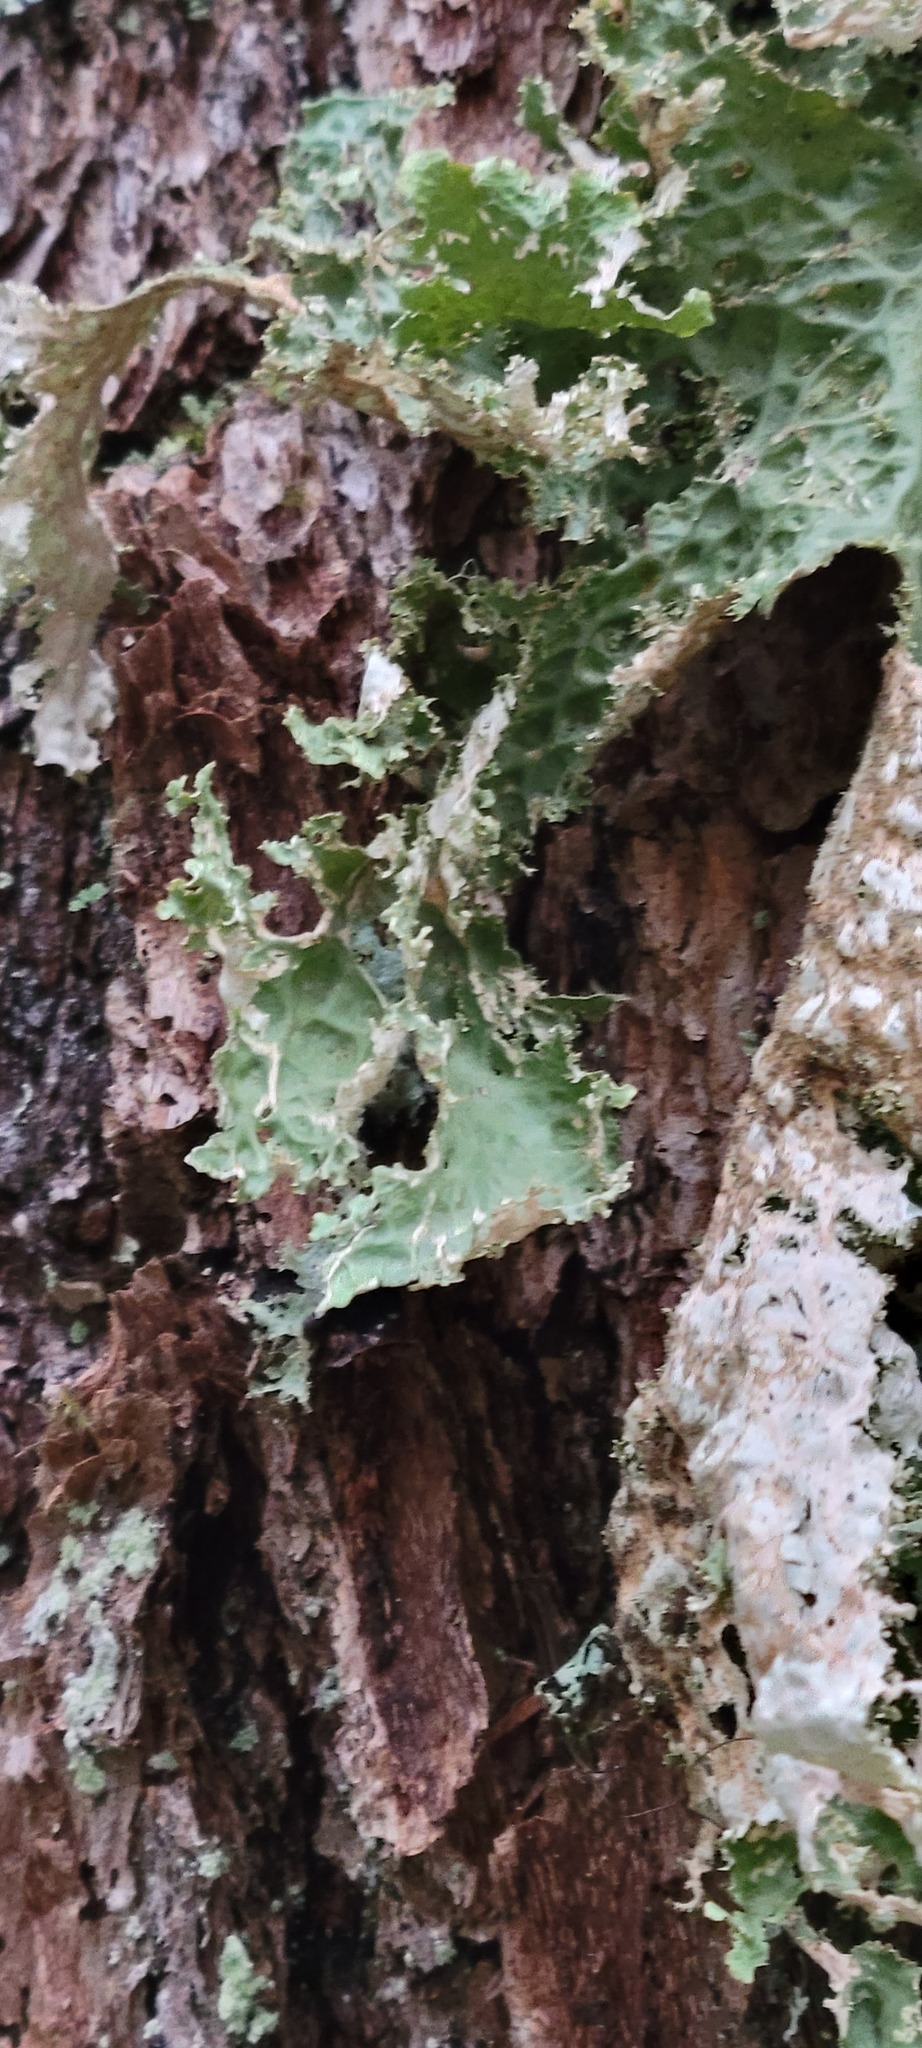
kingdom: Fungi
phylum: Ascomycota
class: Lecanoromycetes
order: Peltigerales
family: Lobariaceae
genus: Lobaria
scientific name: Lobaria oregana
